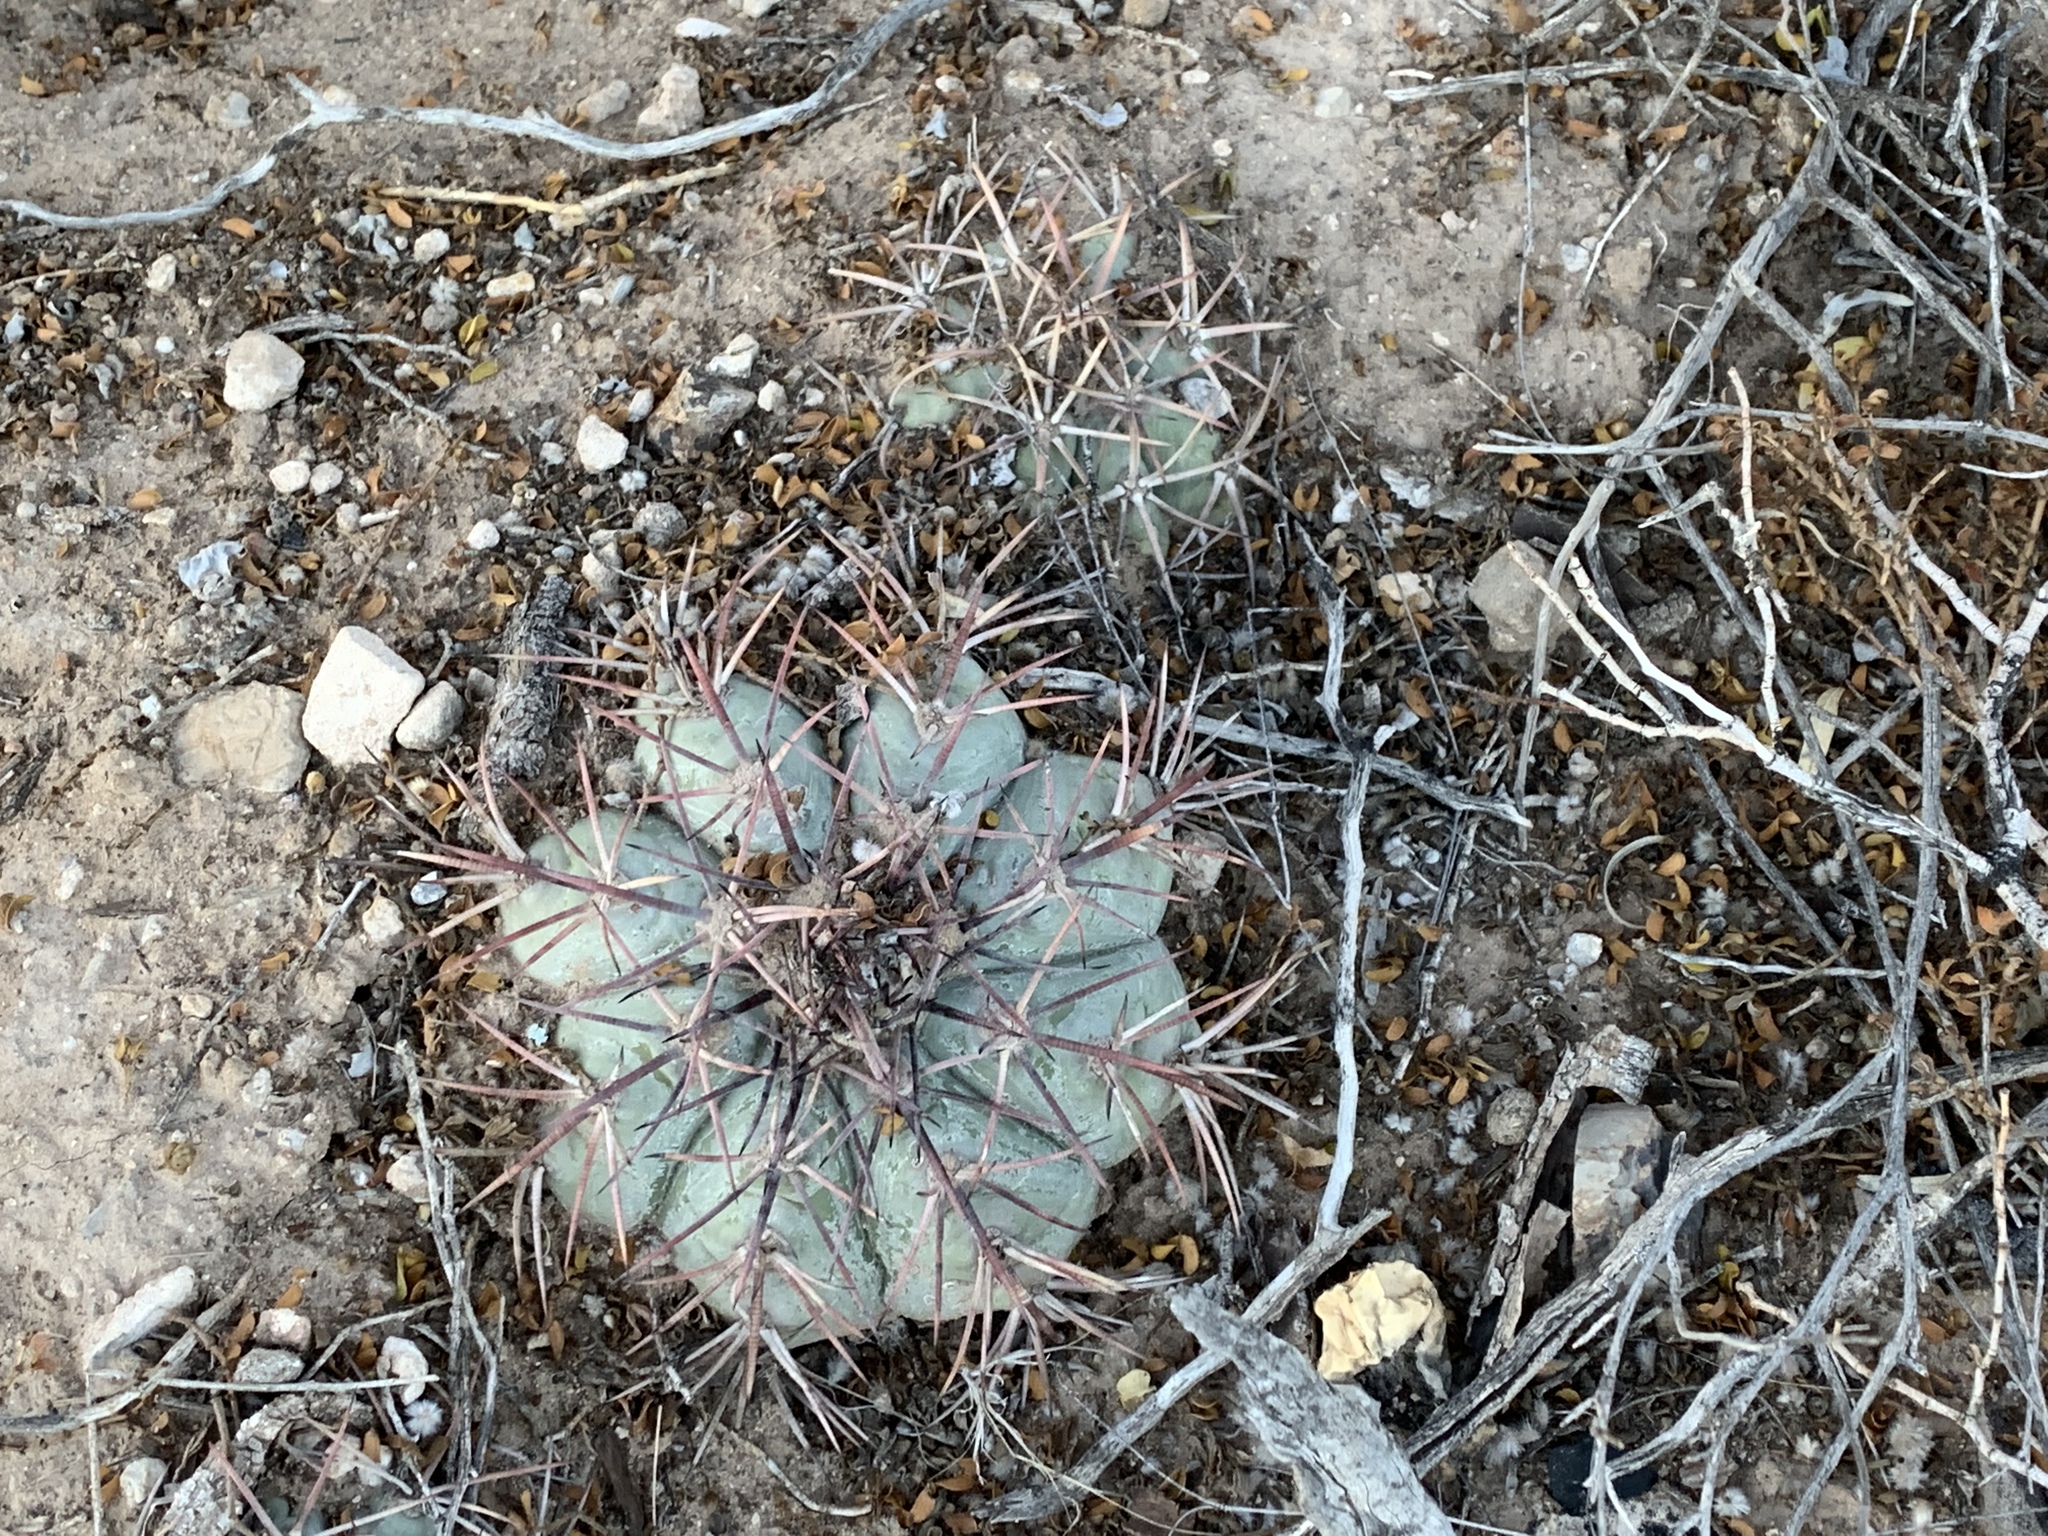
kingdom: Plantae
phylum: Tracheophyta
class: Magnoliopsida
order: Caryophyllales
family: Cactaceae
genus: Echinocactus
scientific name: Echinocactus horizonthalonius
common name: Devilshead
